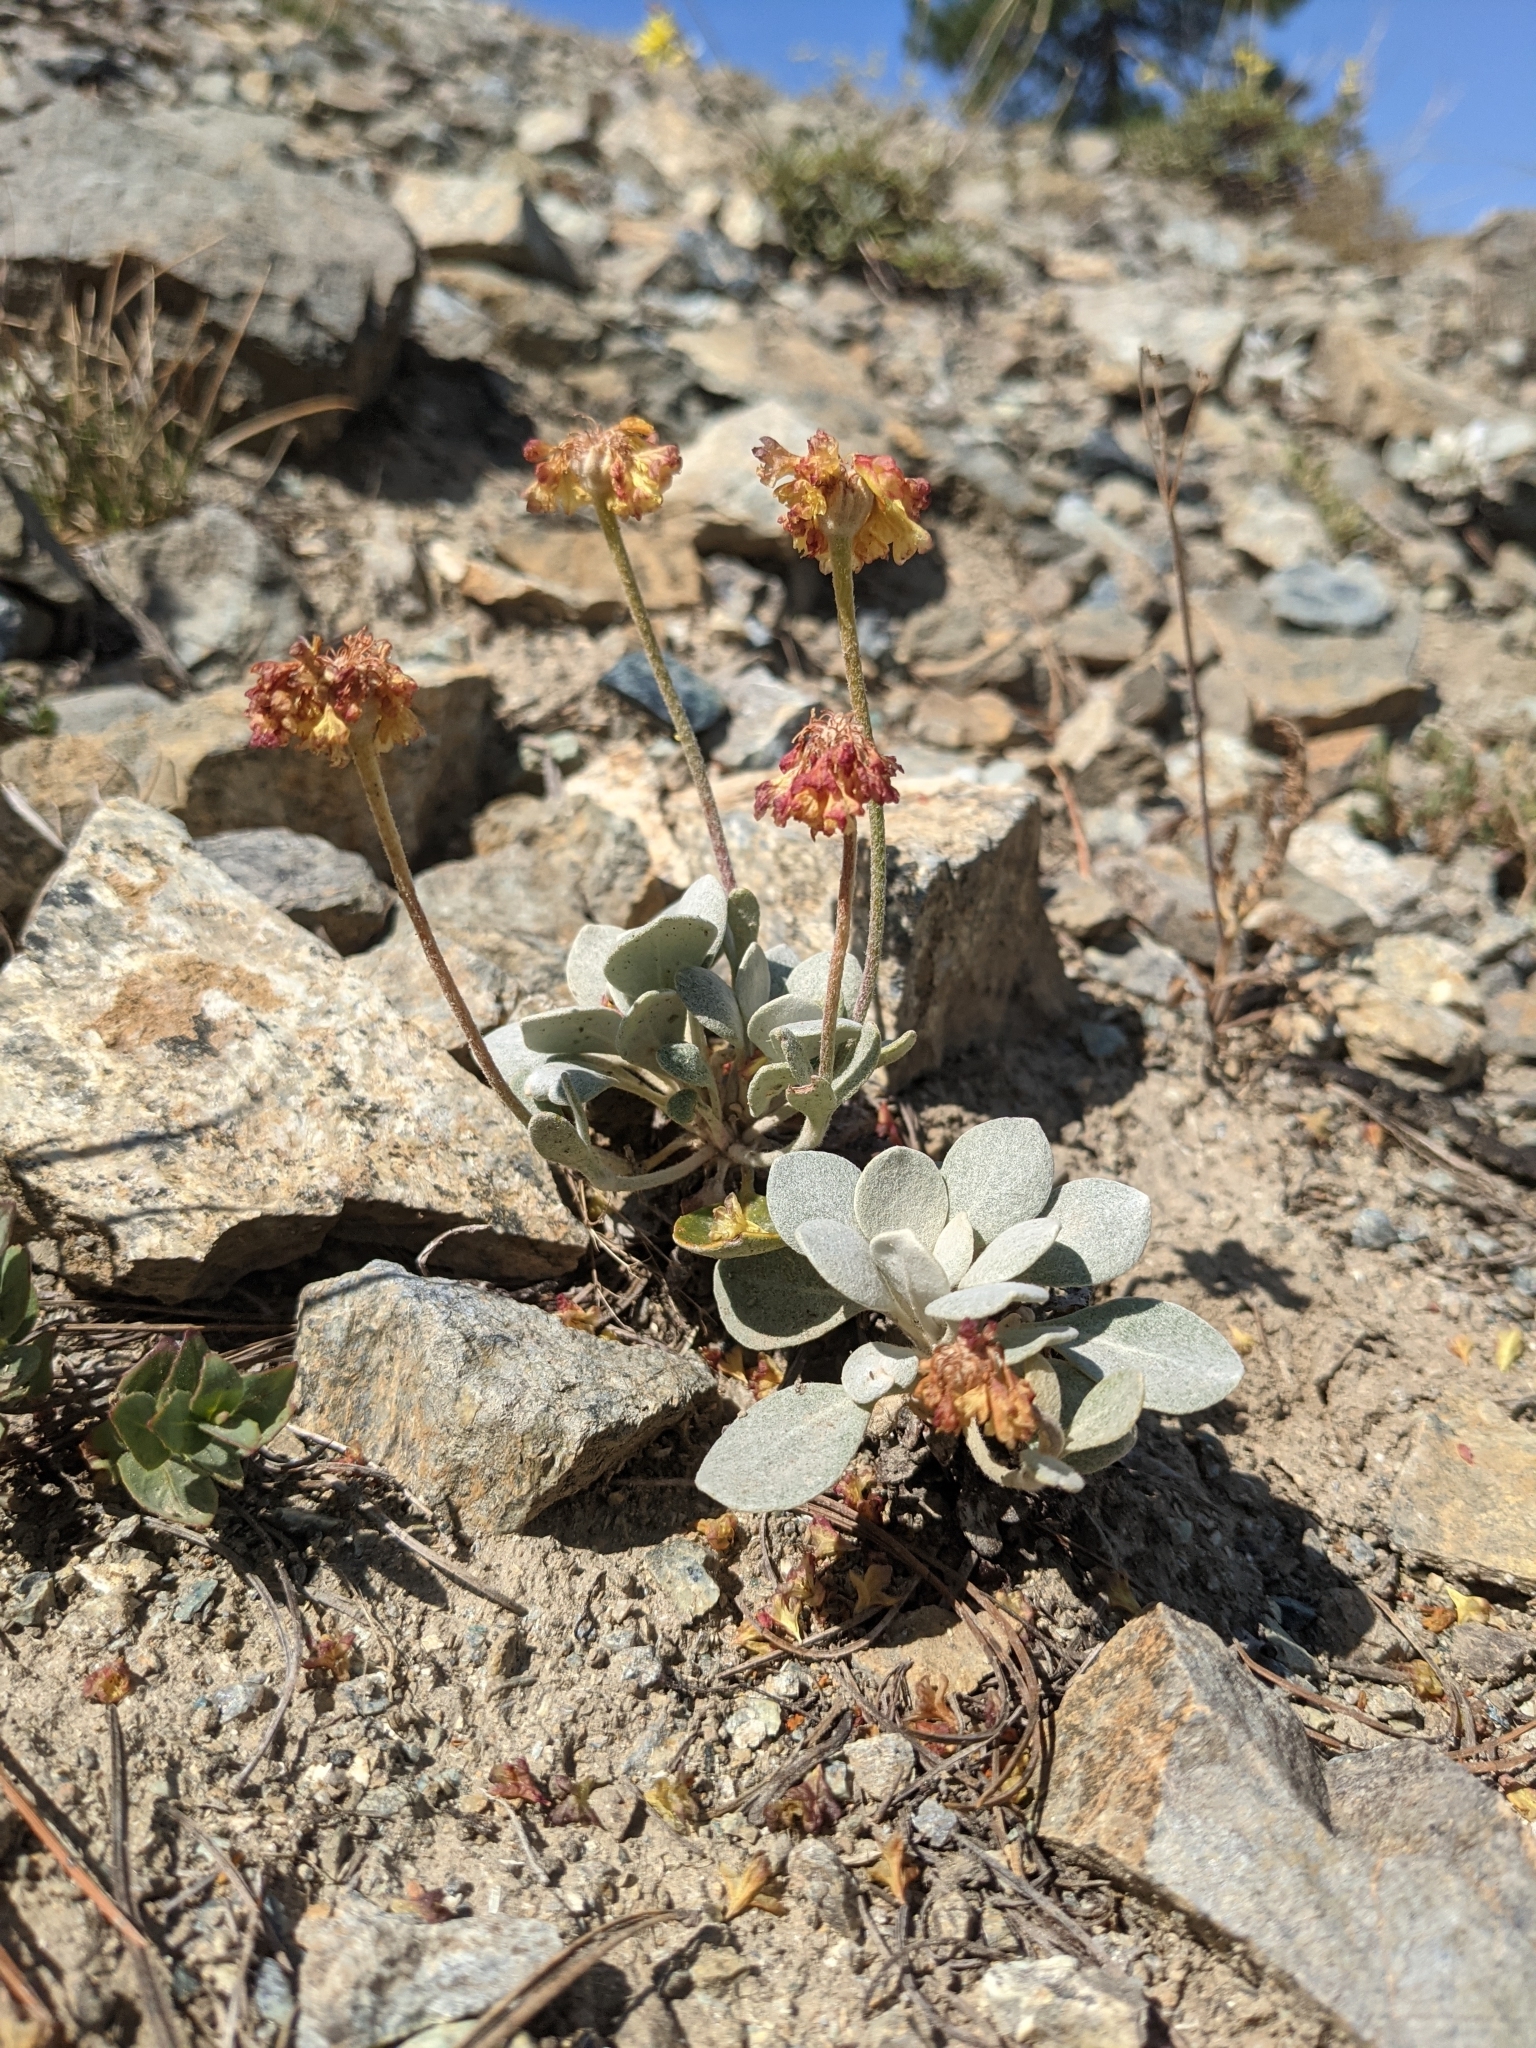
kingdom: Plantae
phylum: Tracheophyta
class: Magnoliopsida
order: Caryophyllales
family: Polygonaceae
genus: Eriogonum
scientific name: Eriogonum alpinum
